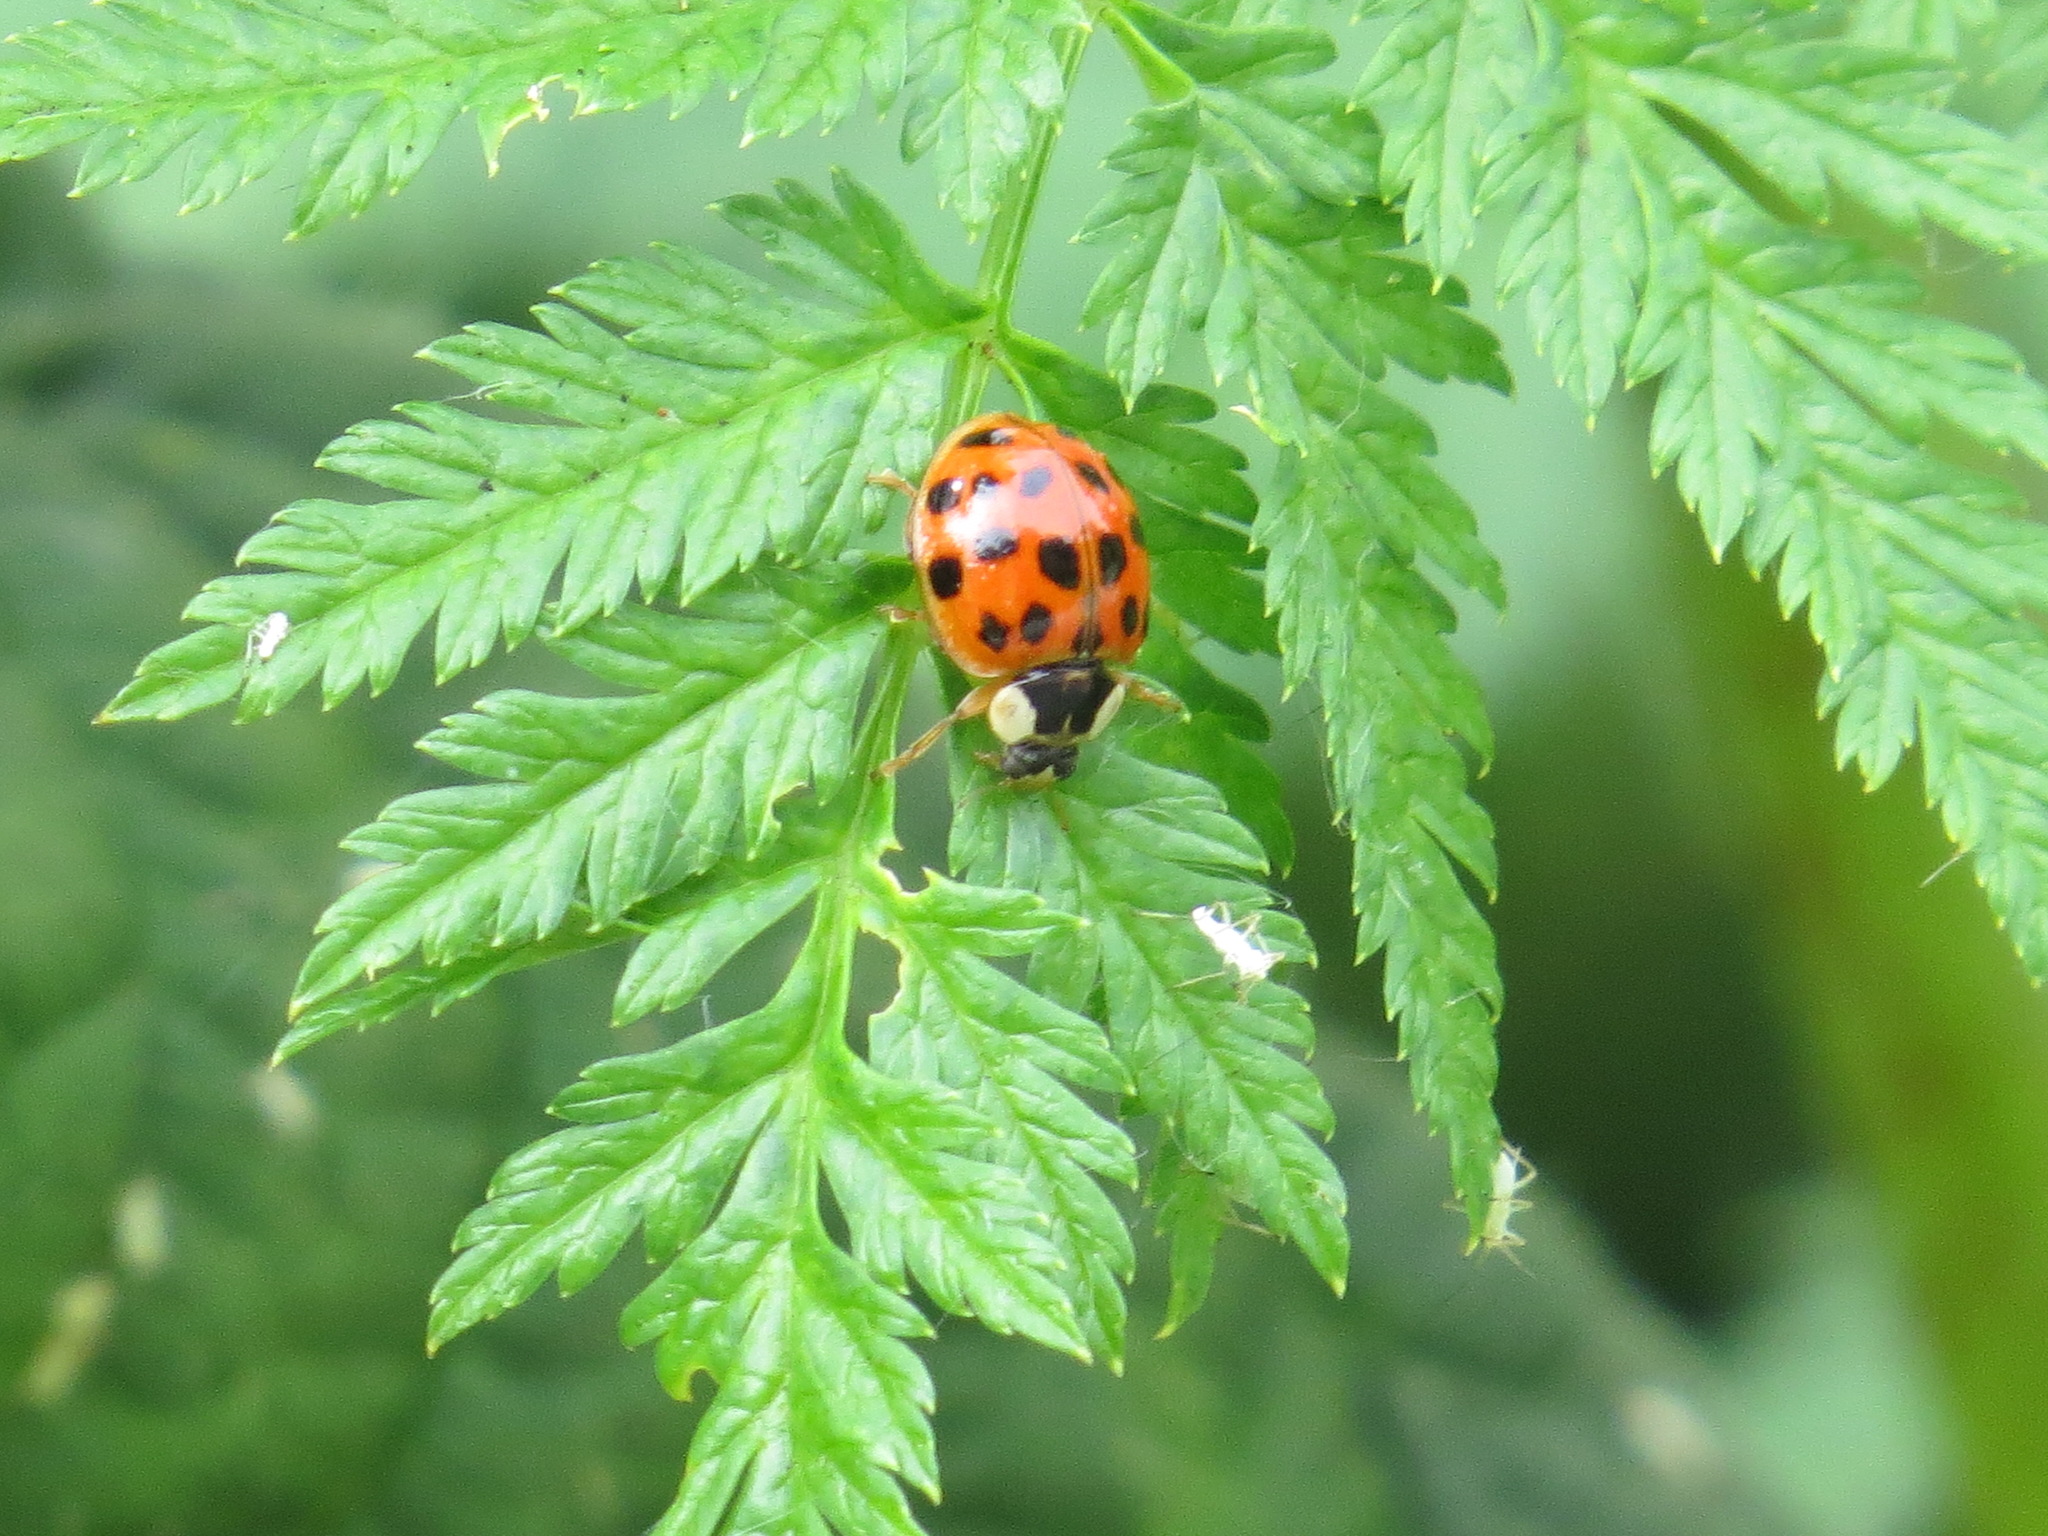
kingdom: Animalia
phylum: Arthropoda
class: Insecta
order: Coleoptera
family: Coccinellidae
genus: Harmonia
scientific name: Harmonia axyridis
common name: Harlequin ladybird
